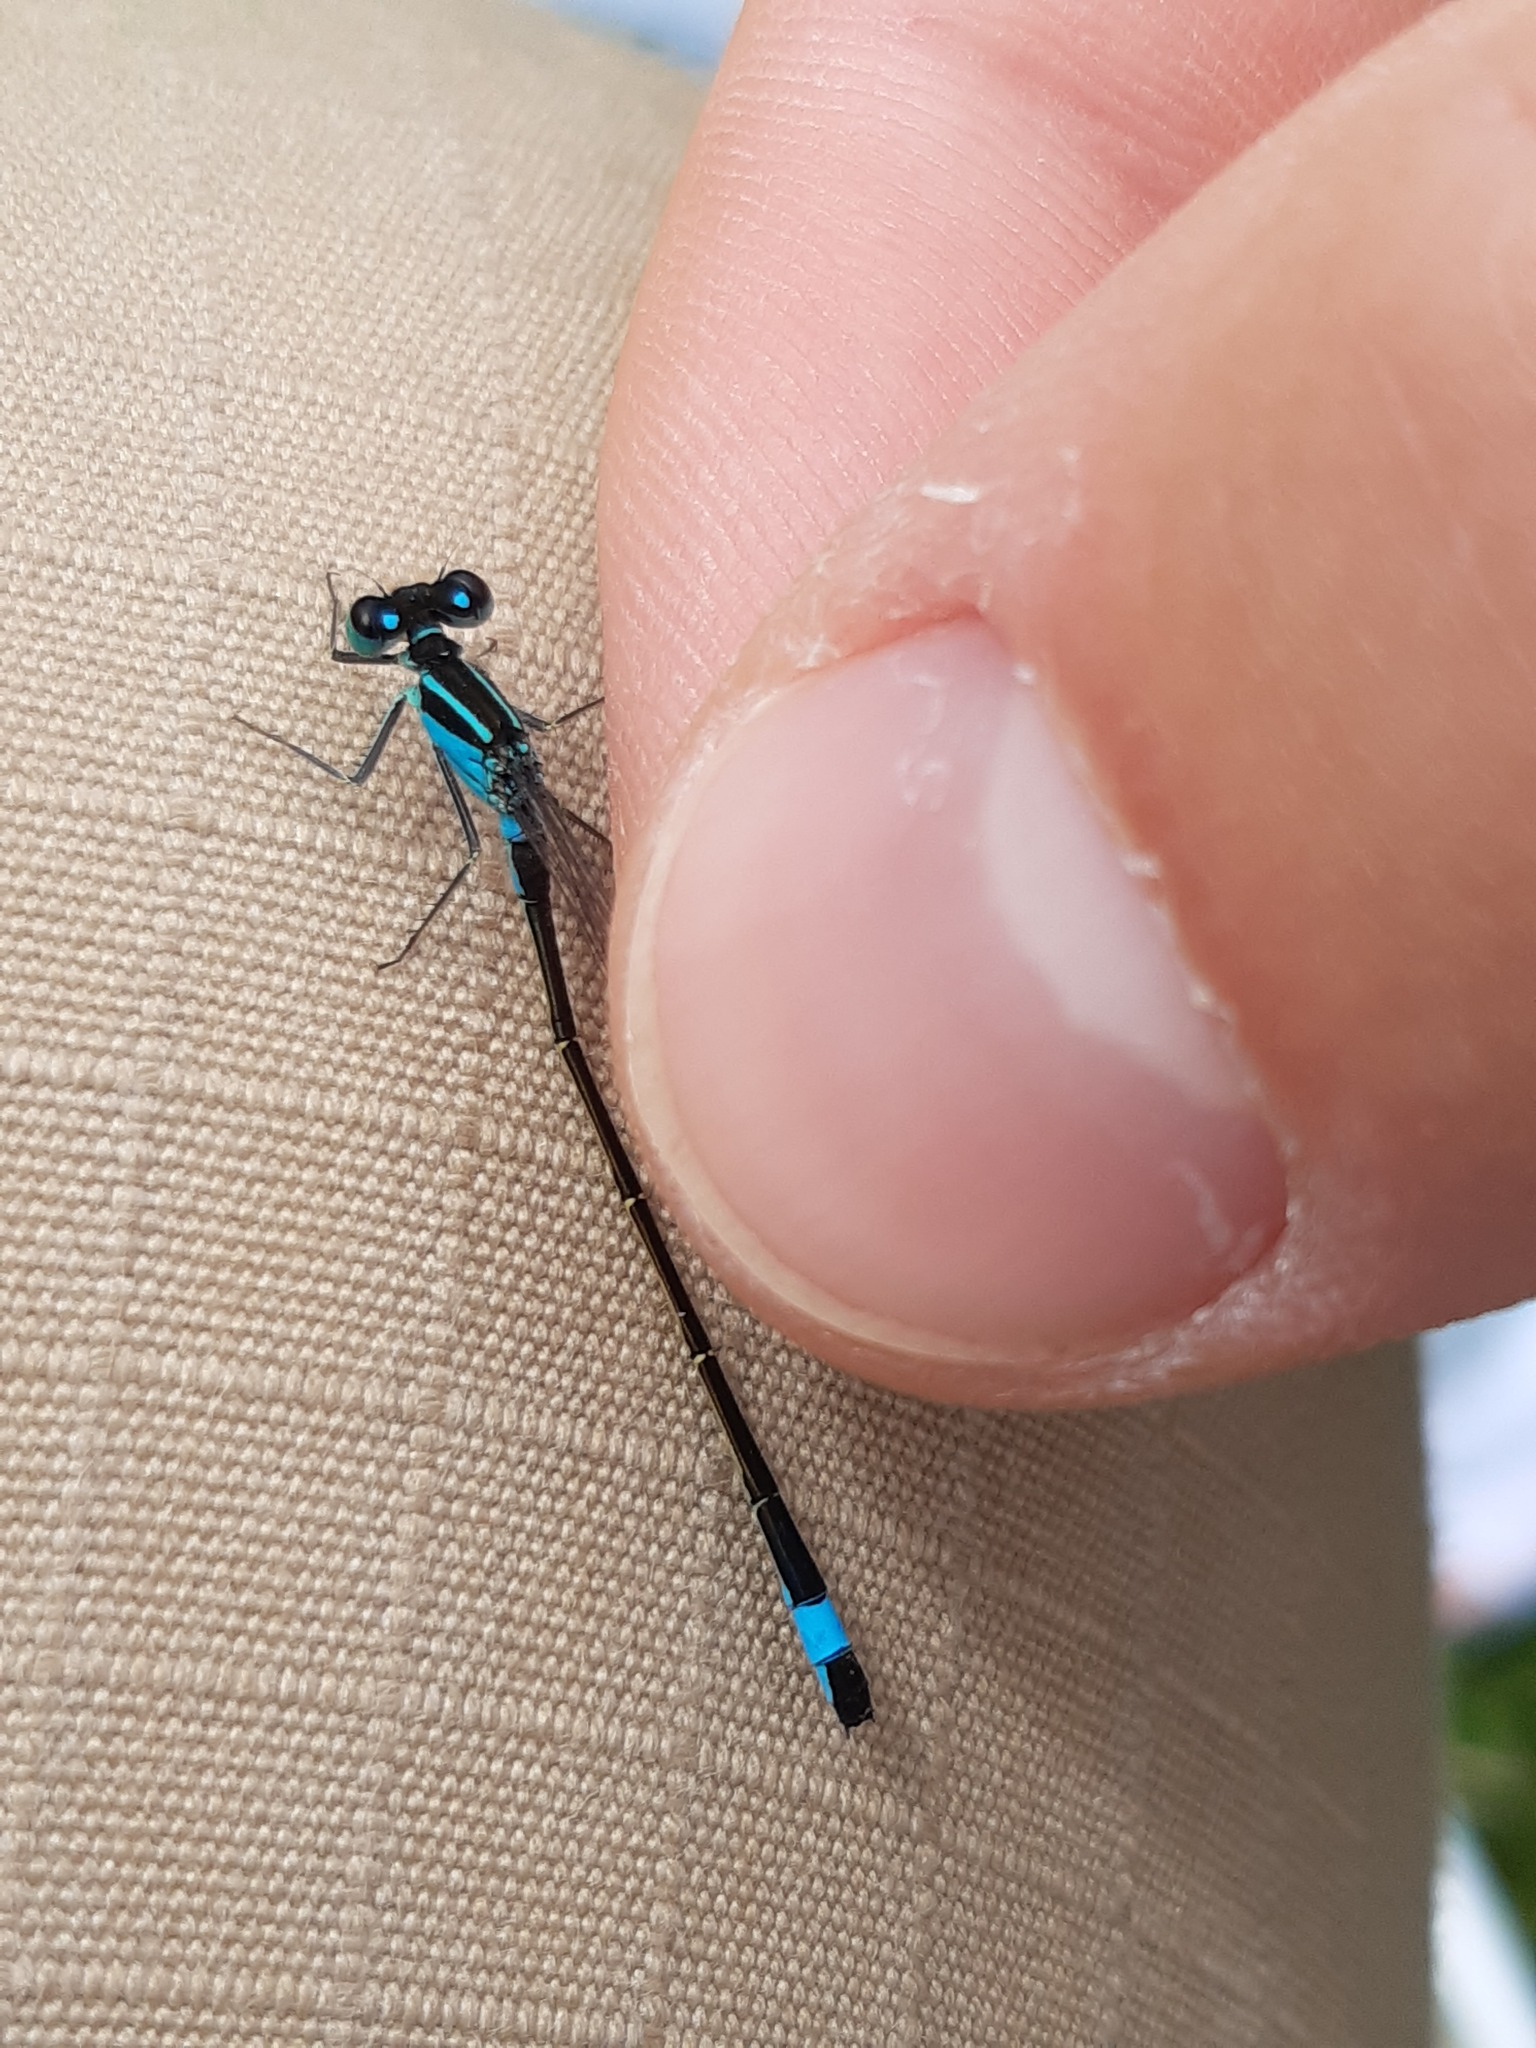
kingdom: Animalia
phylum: Arthropoda
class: Insecta
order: Odonata
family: Coenagrionidae
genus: Ischnura
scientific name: Ischnura elegans
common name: Blue-tailed damselfly
